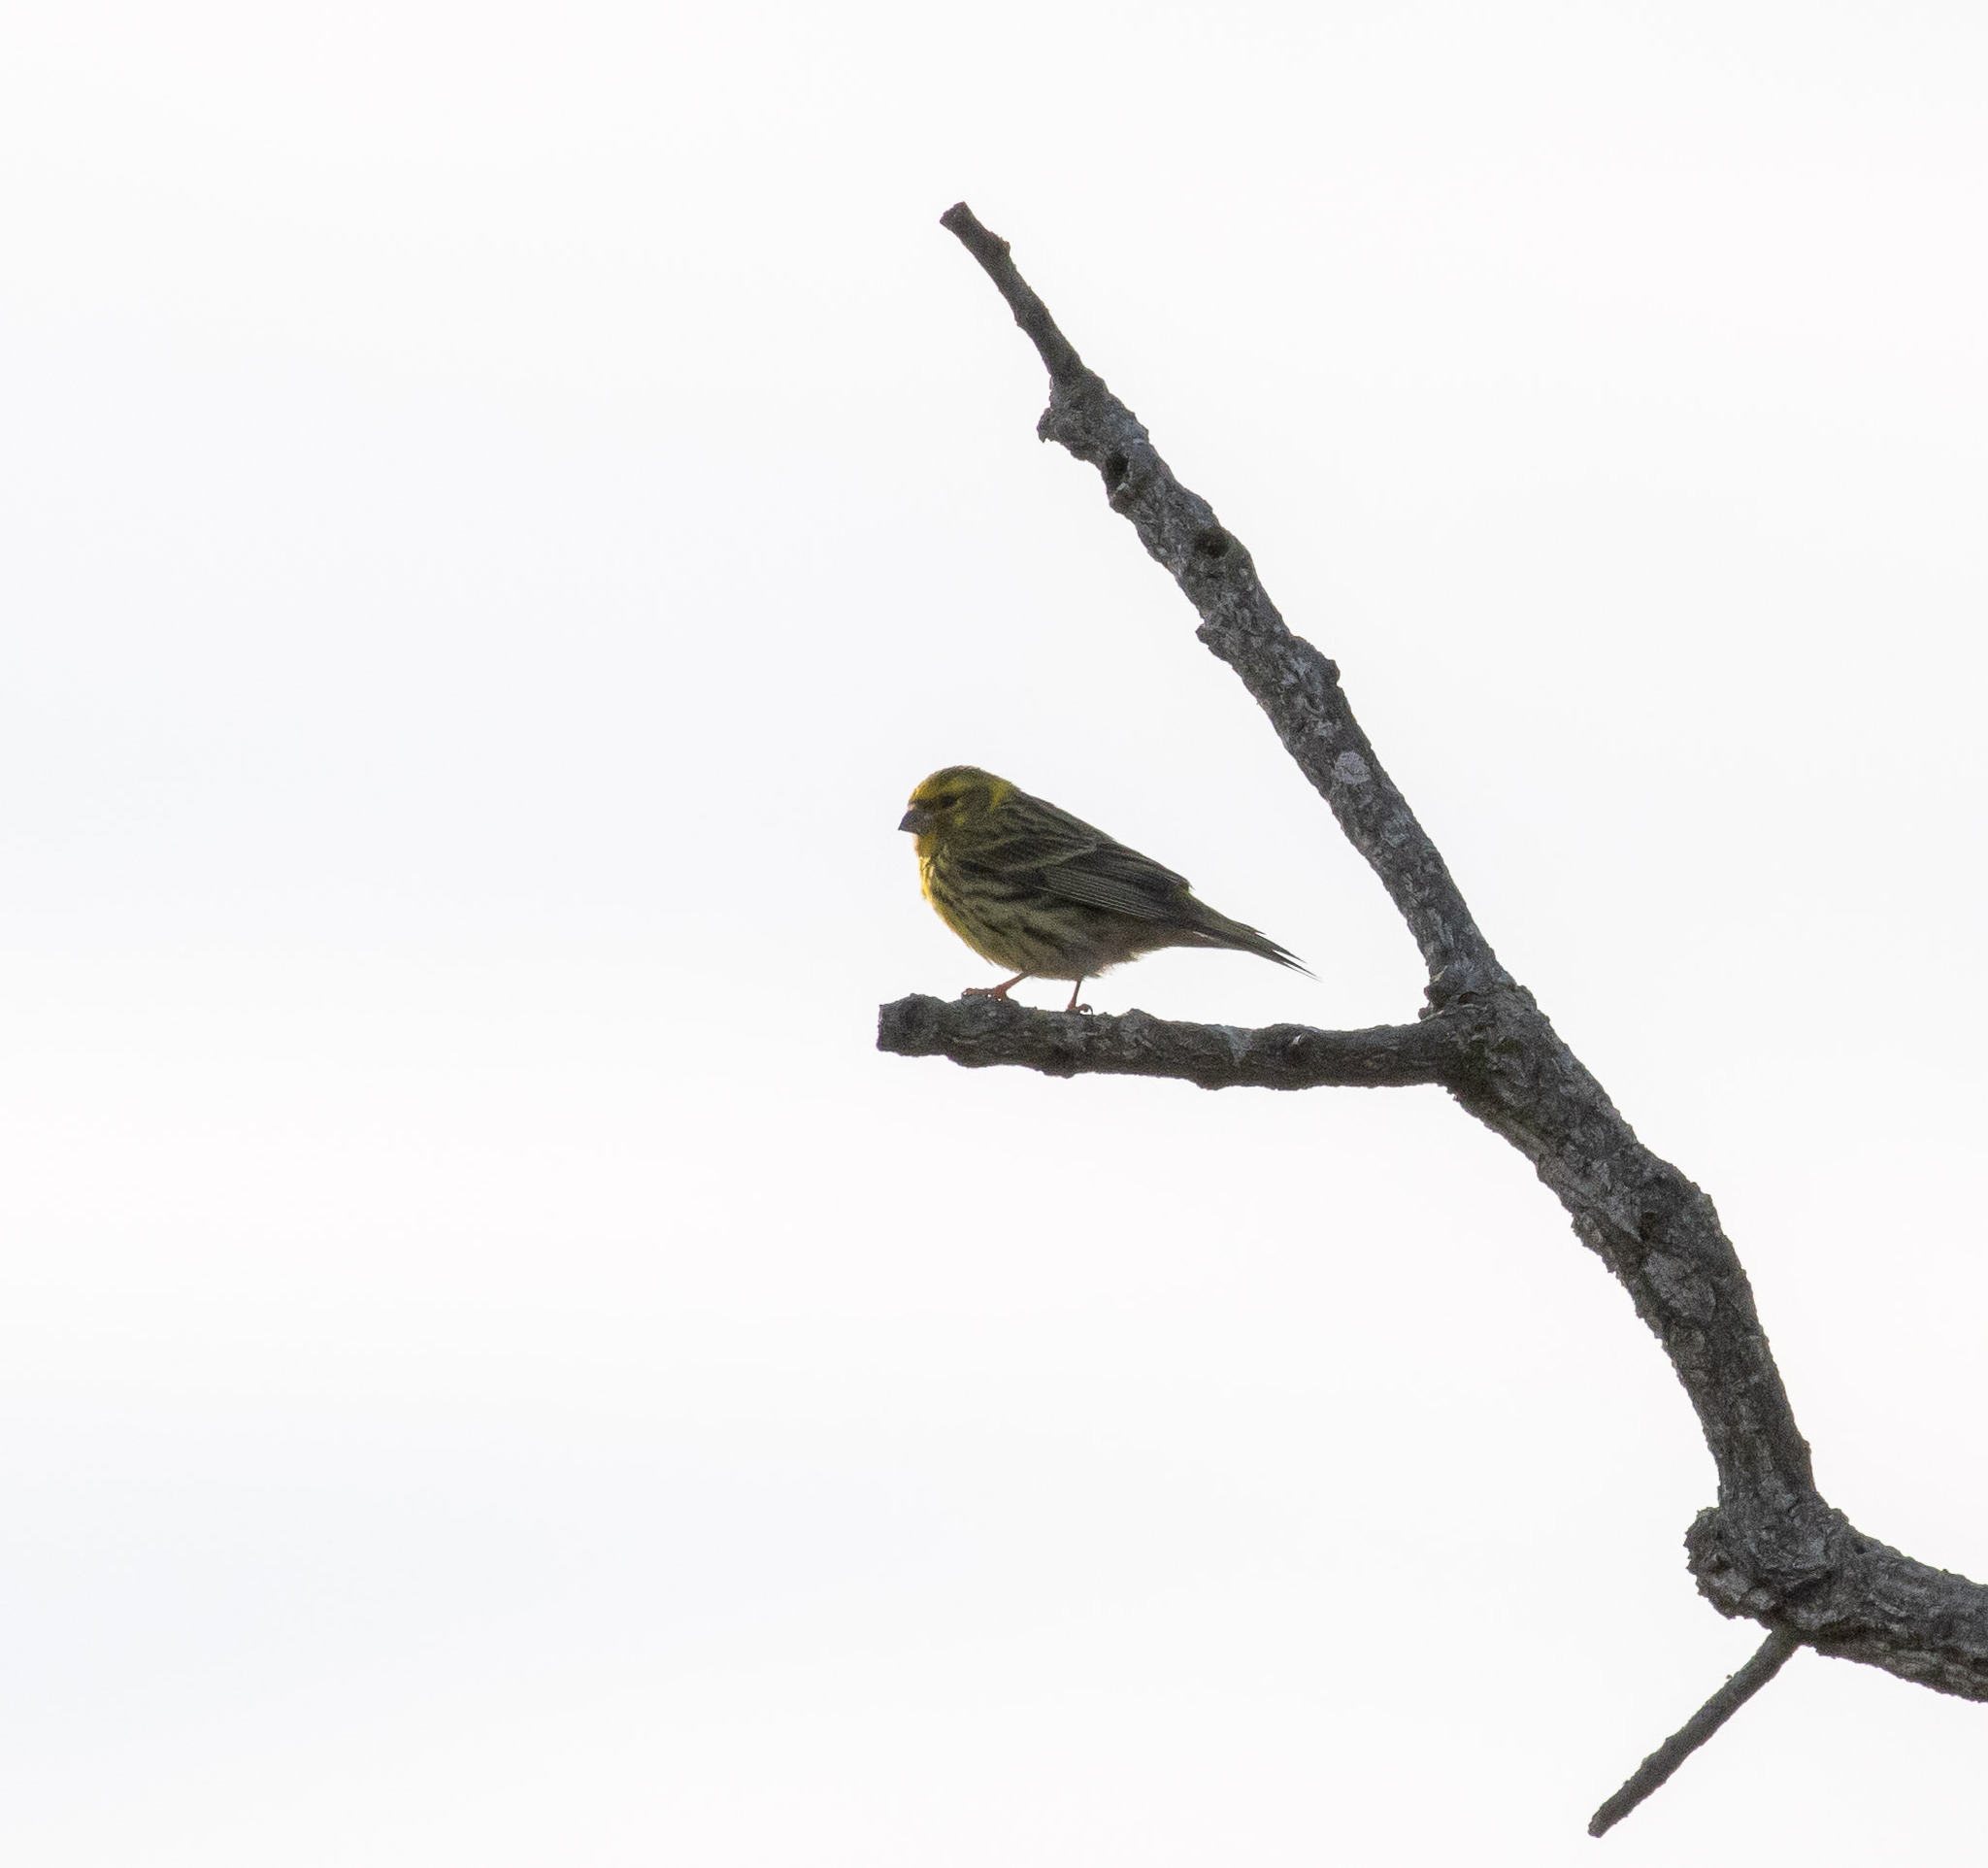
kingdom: Animalia
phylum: Chordata
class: Aves
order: Passeriformes
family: Fringillidae
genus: Serinus
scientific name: Serinus serinus
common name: European serin
